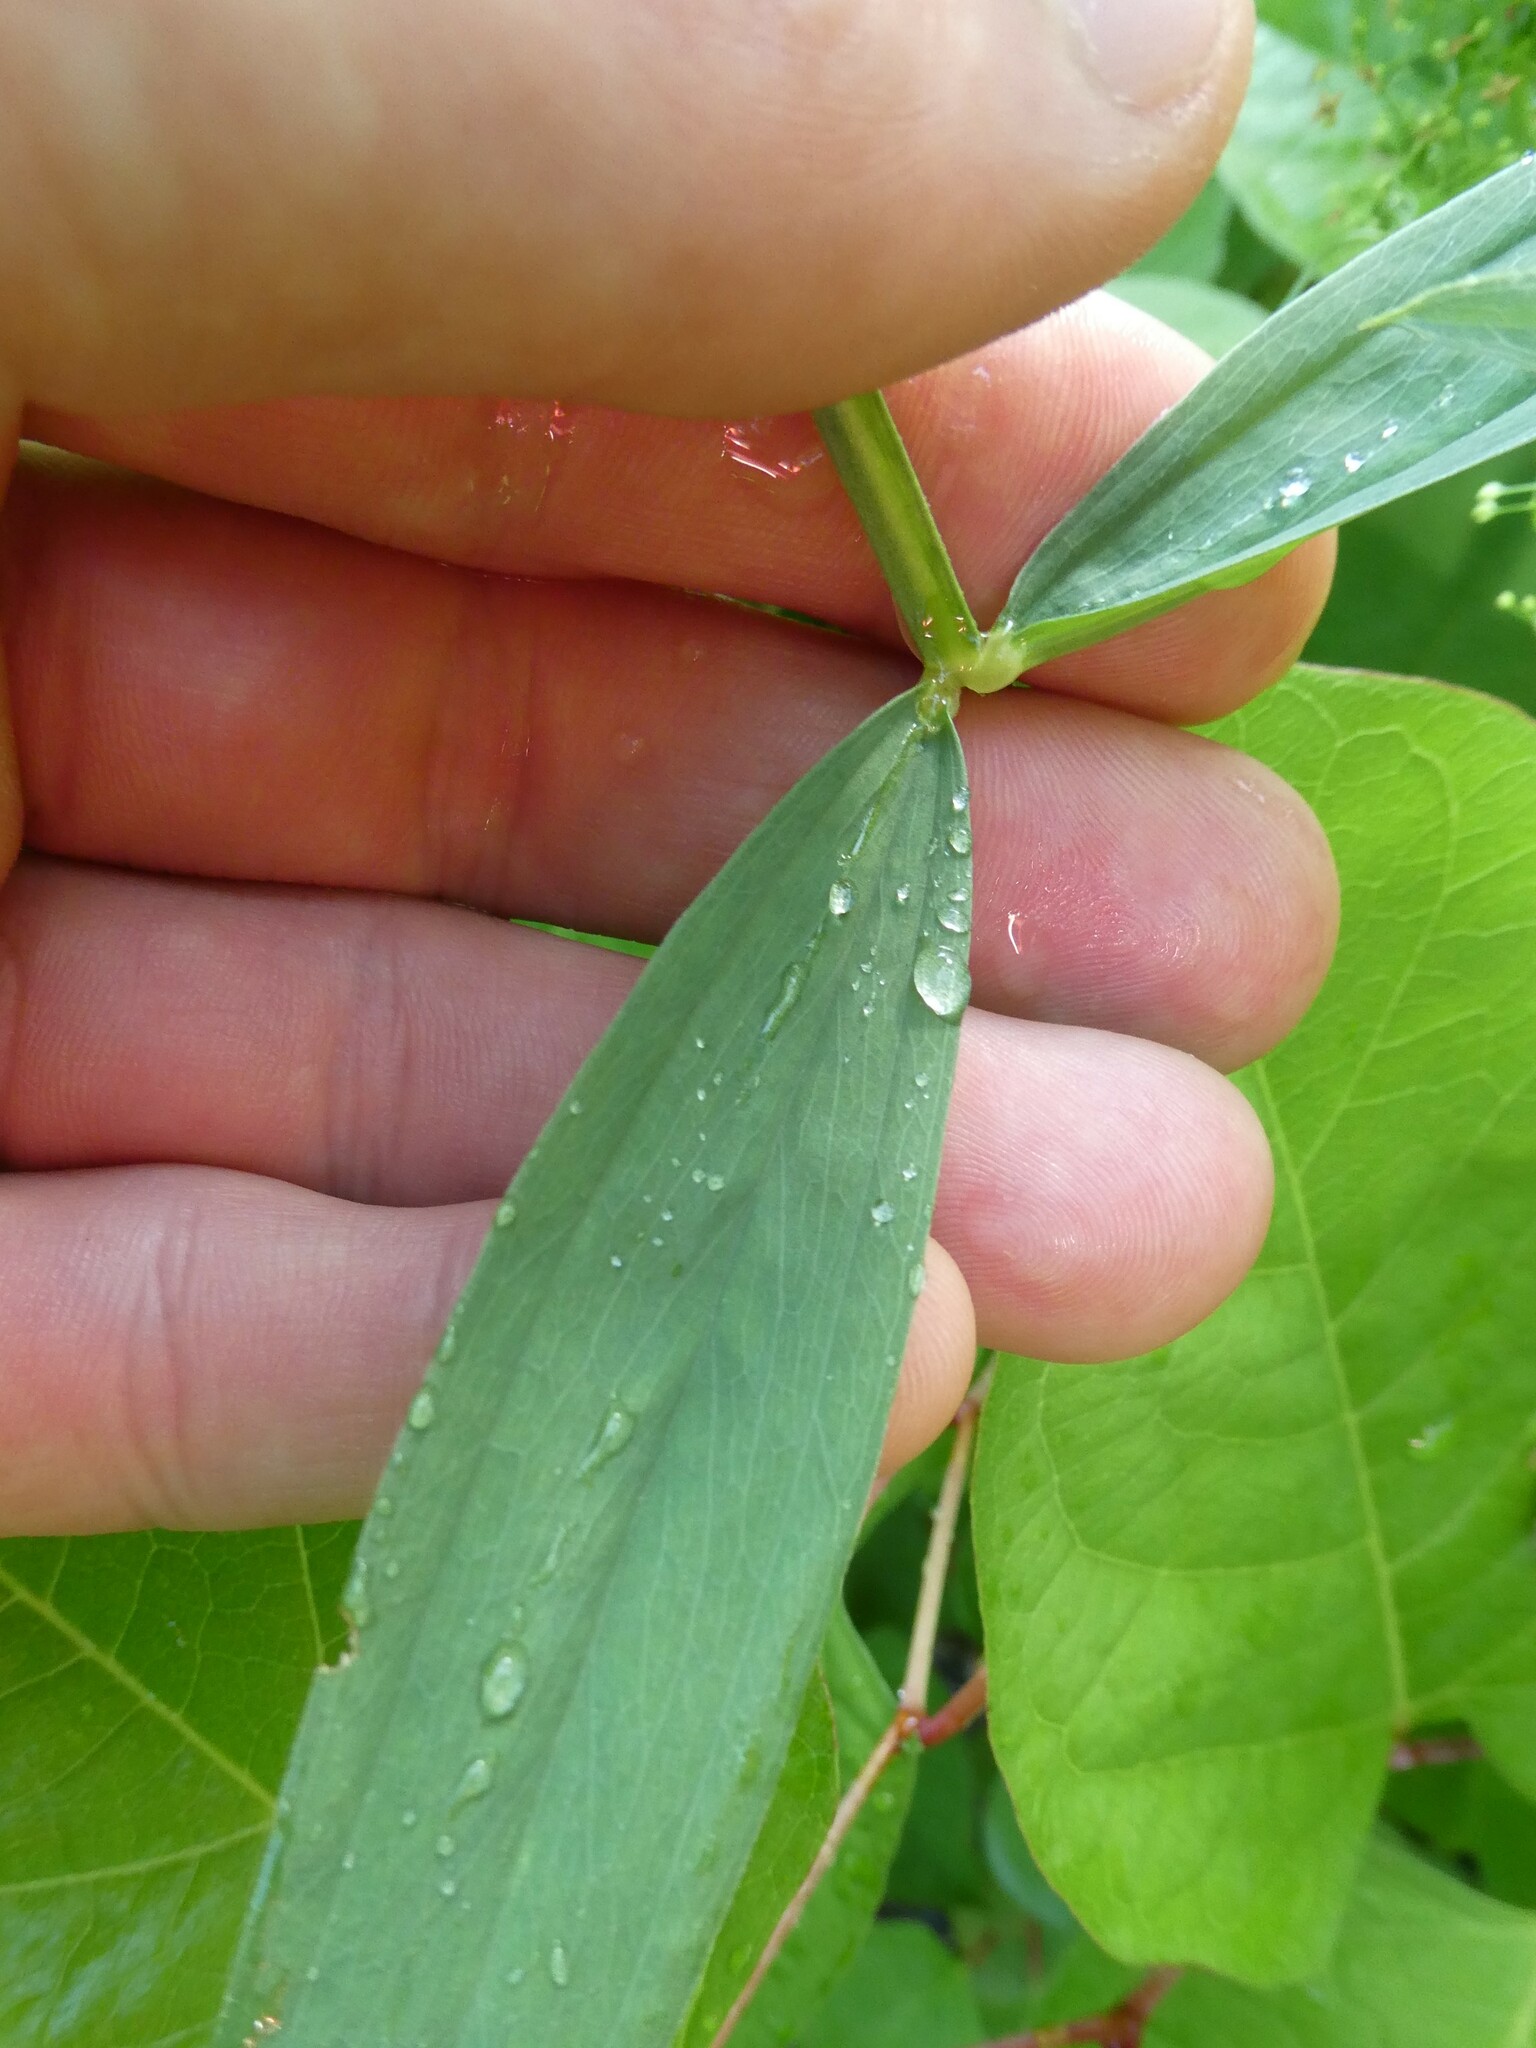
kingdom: Plantae
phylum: Tracheophyta
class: Magnoliopsida
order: Fabales
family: Fabaceae
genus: Lathyrus
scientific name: Lathyrus sylvestris
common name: Flat pea
